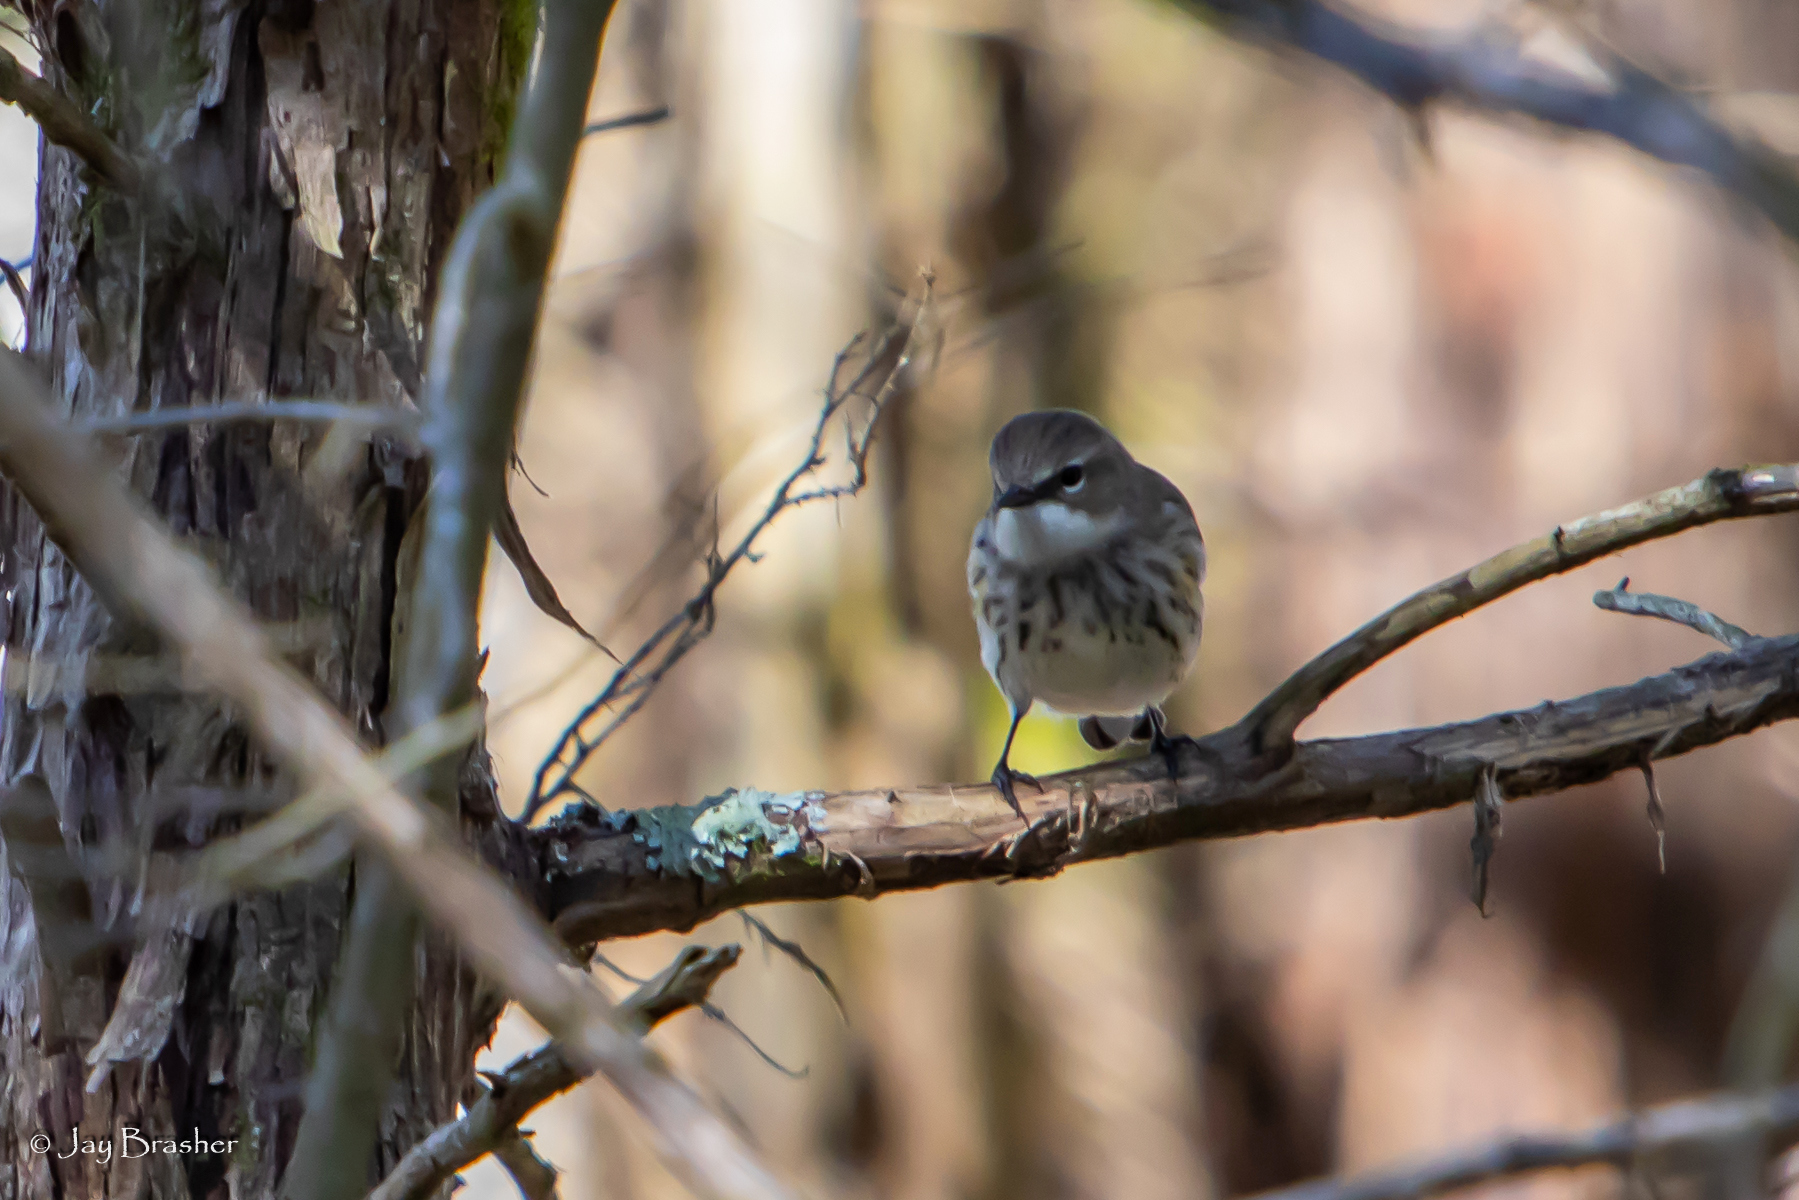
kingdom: Animalia
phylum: Chordata
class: Aves
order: Passeriformes
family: Parulidae
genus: Setophaga
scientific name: Setophaga coronata
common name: Myrtle warbler
